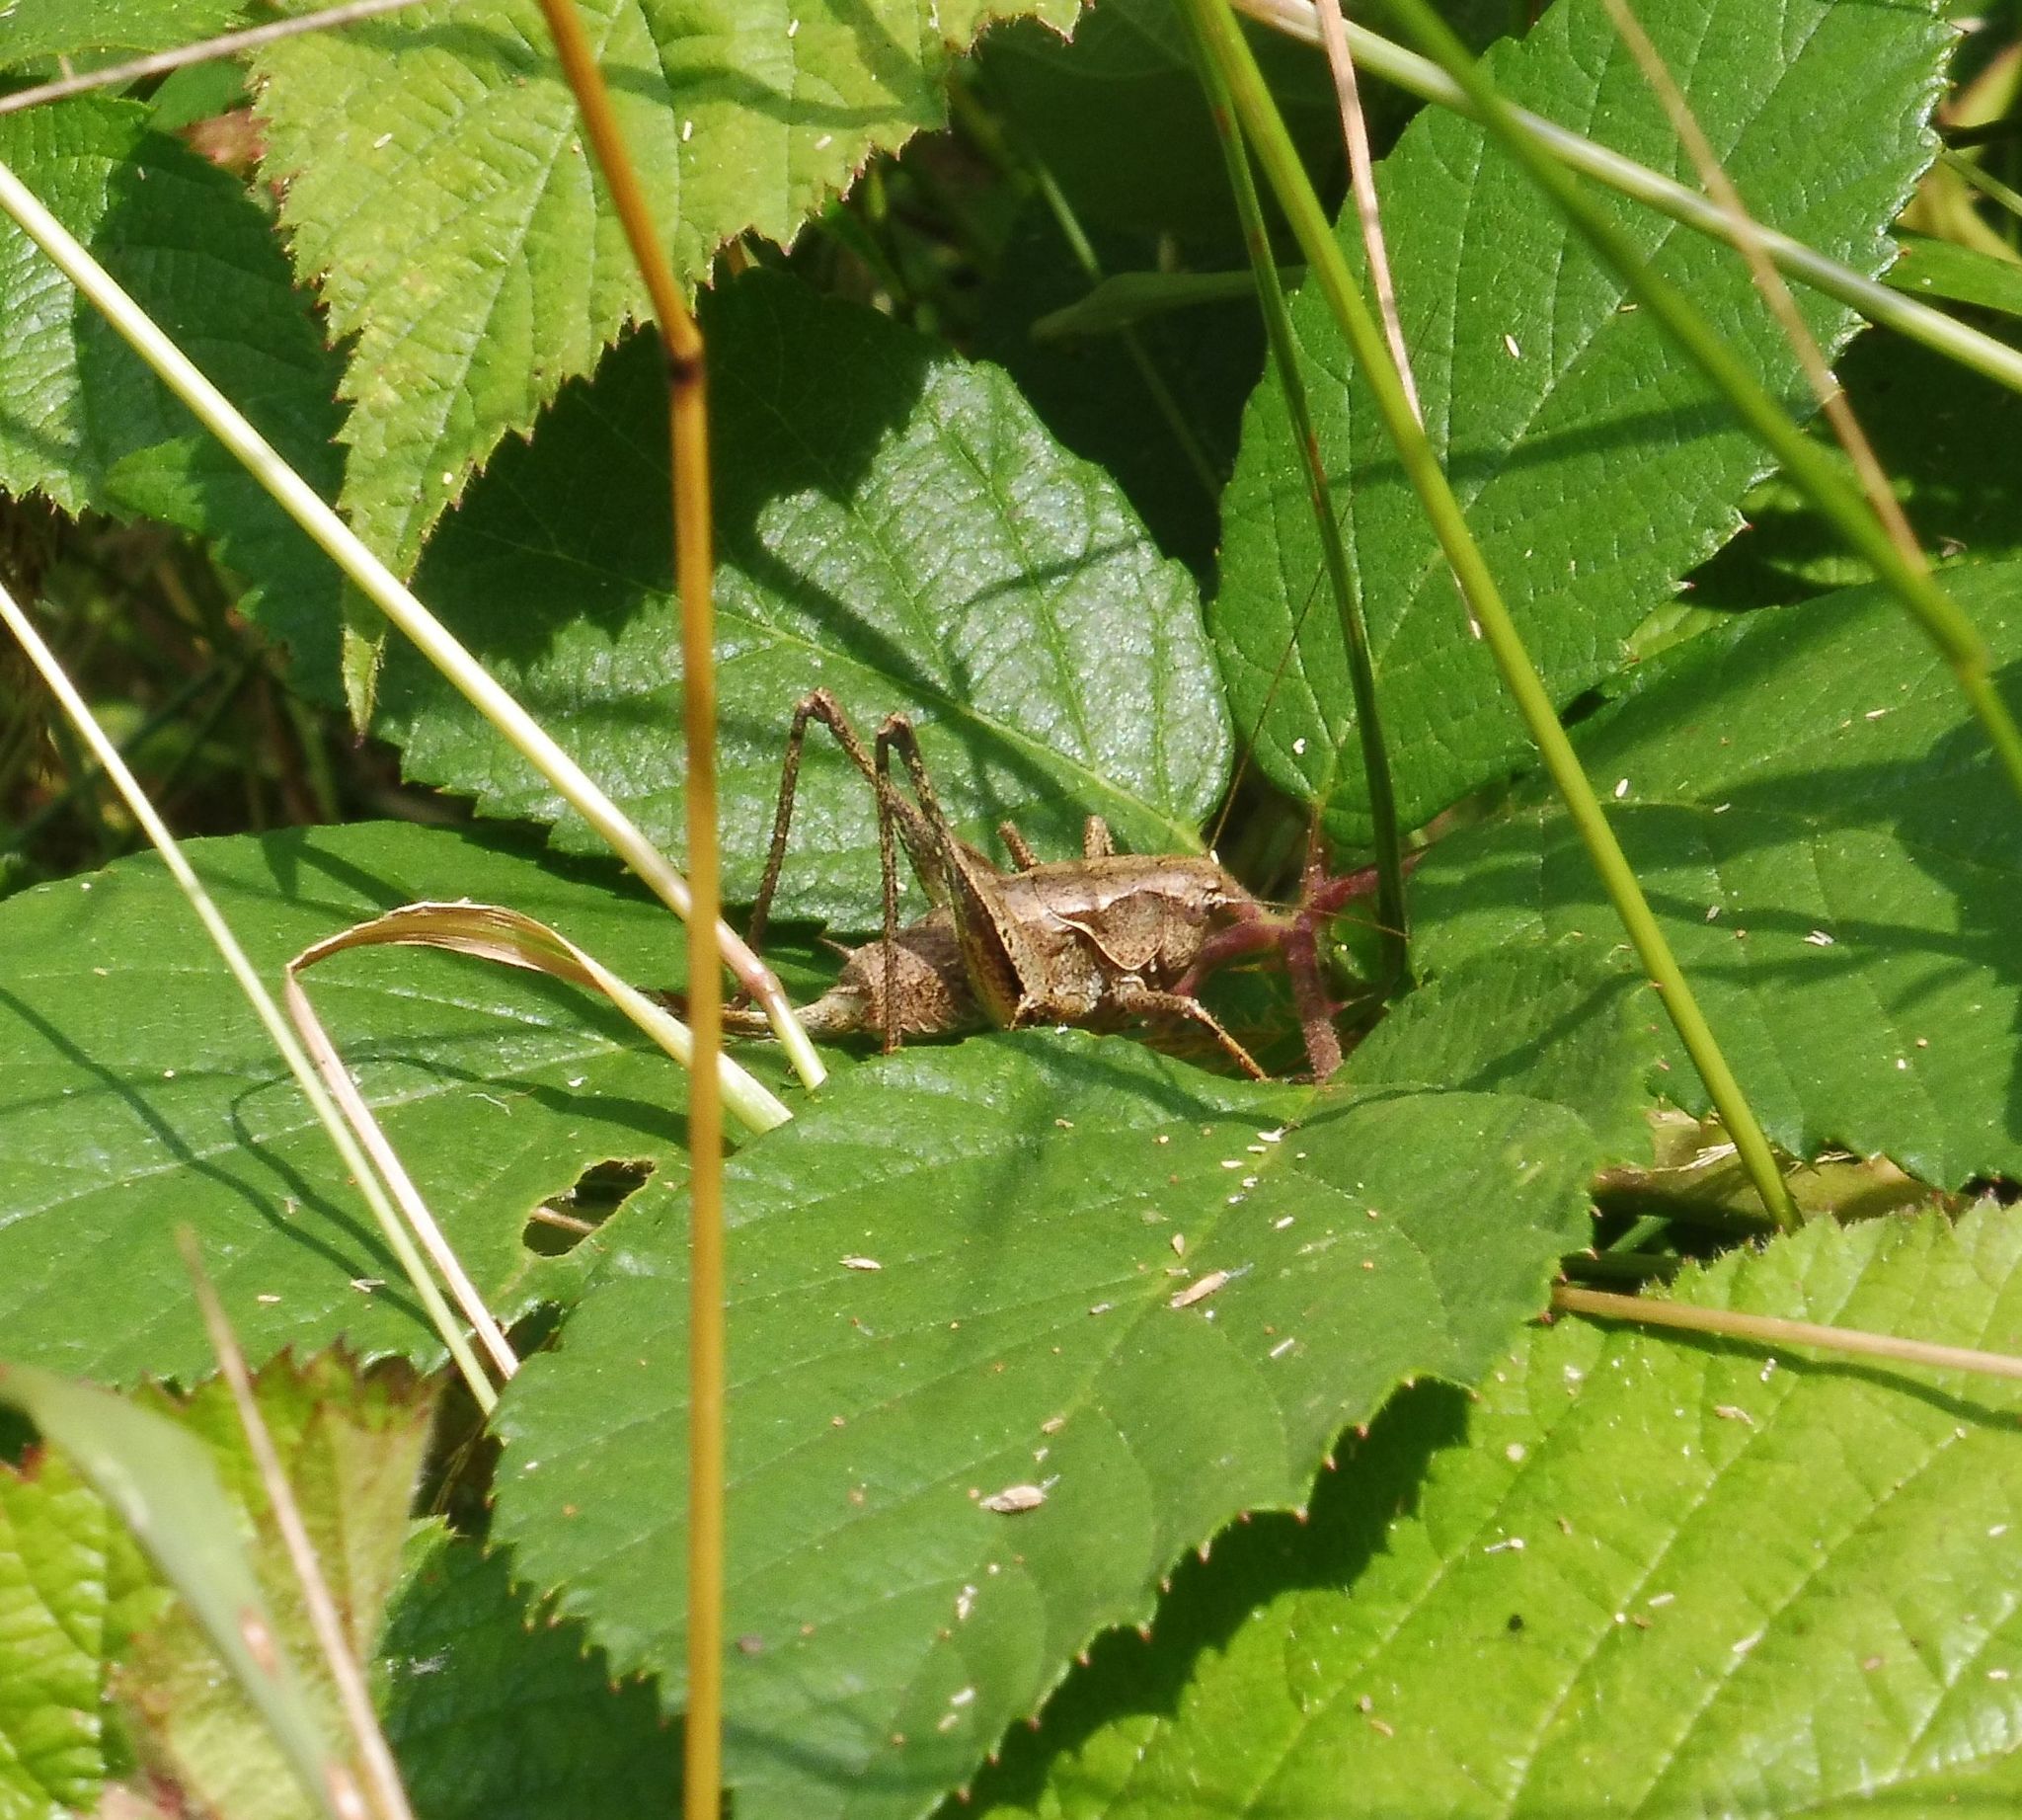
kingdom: Animalia
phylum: Arthropoda
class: Insecta
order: Orthoptera
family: Tettigoniidae
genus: Pholidoptera
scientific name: Pholidoptera griseoaptera
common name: Dark bush-cricket
